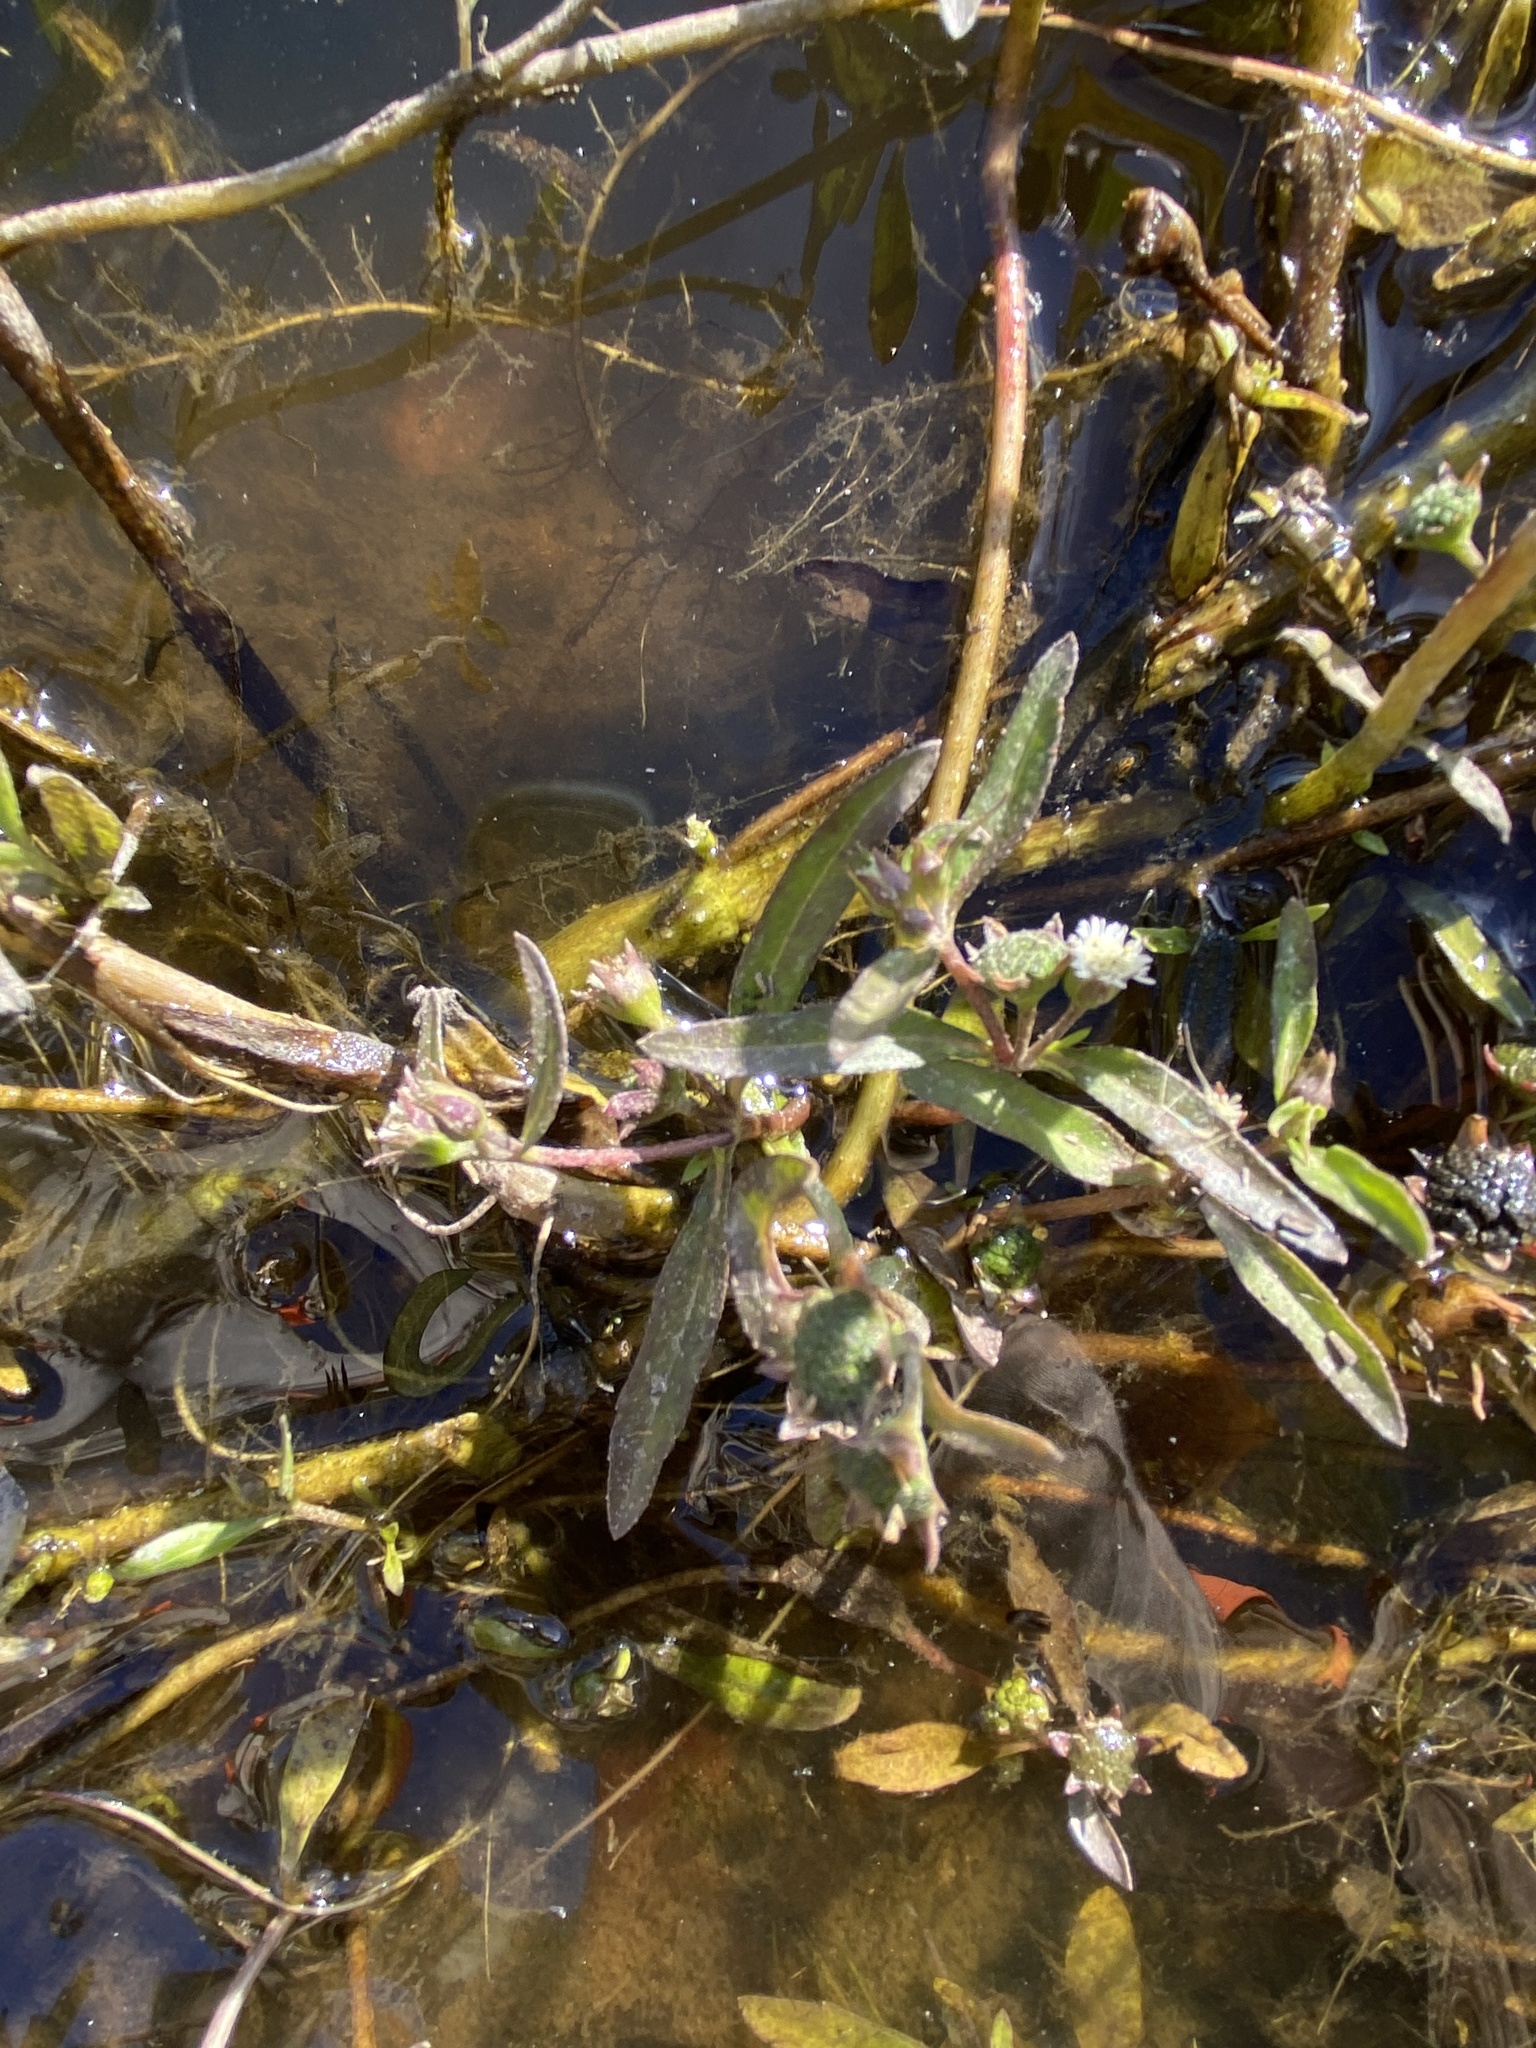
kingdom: Plantae
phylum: Tracheophyta
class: Magnoliopsida
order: Asterales
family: Asteraceae
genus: Eclipta
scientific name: Eclipta prostrata
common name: False daisy
